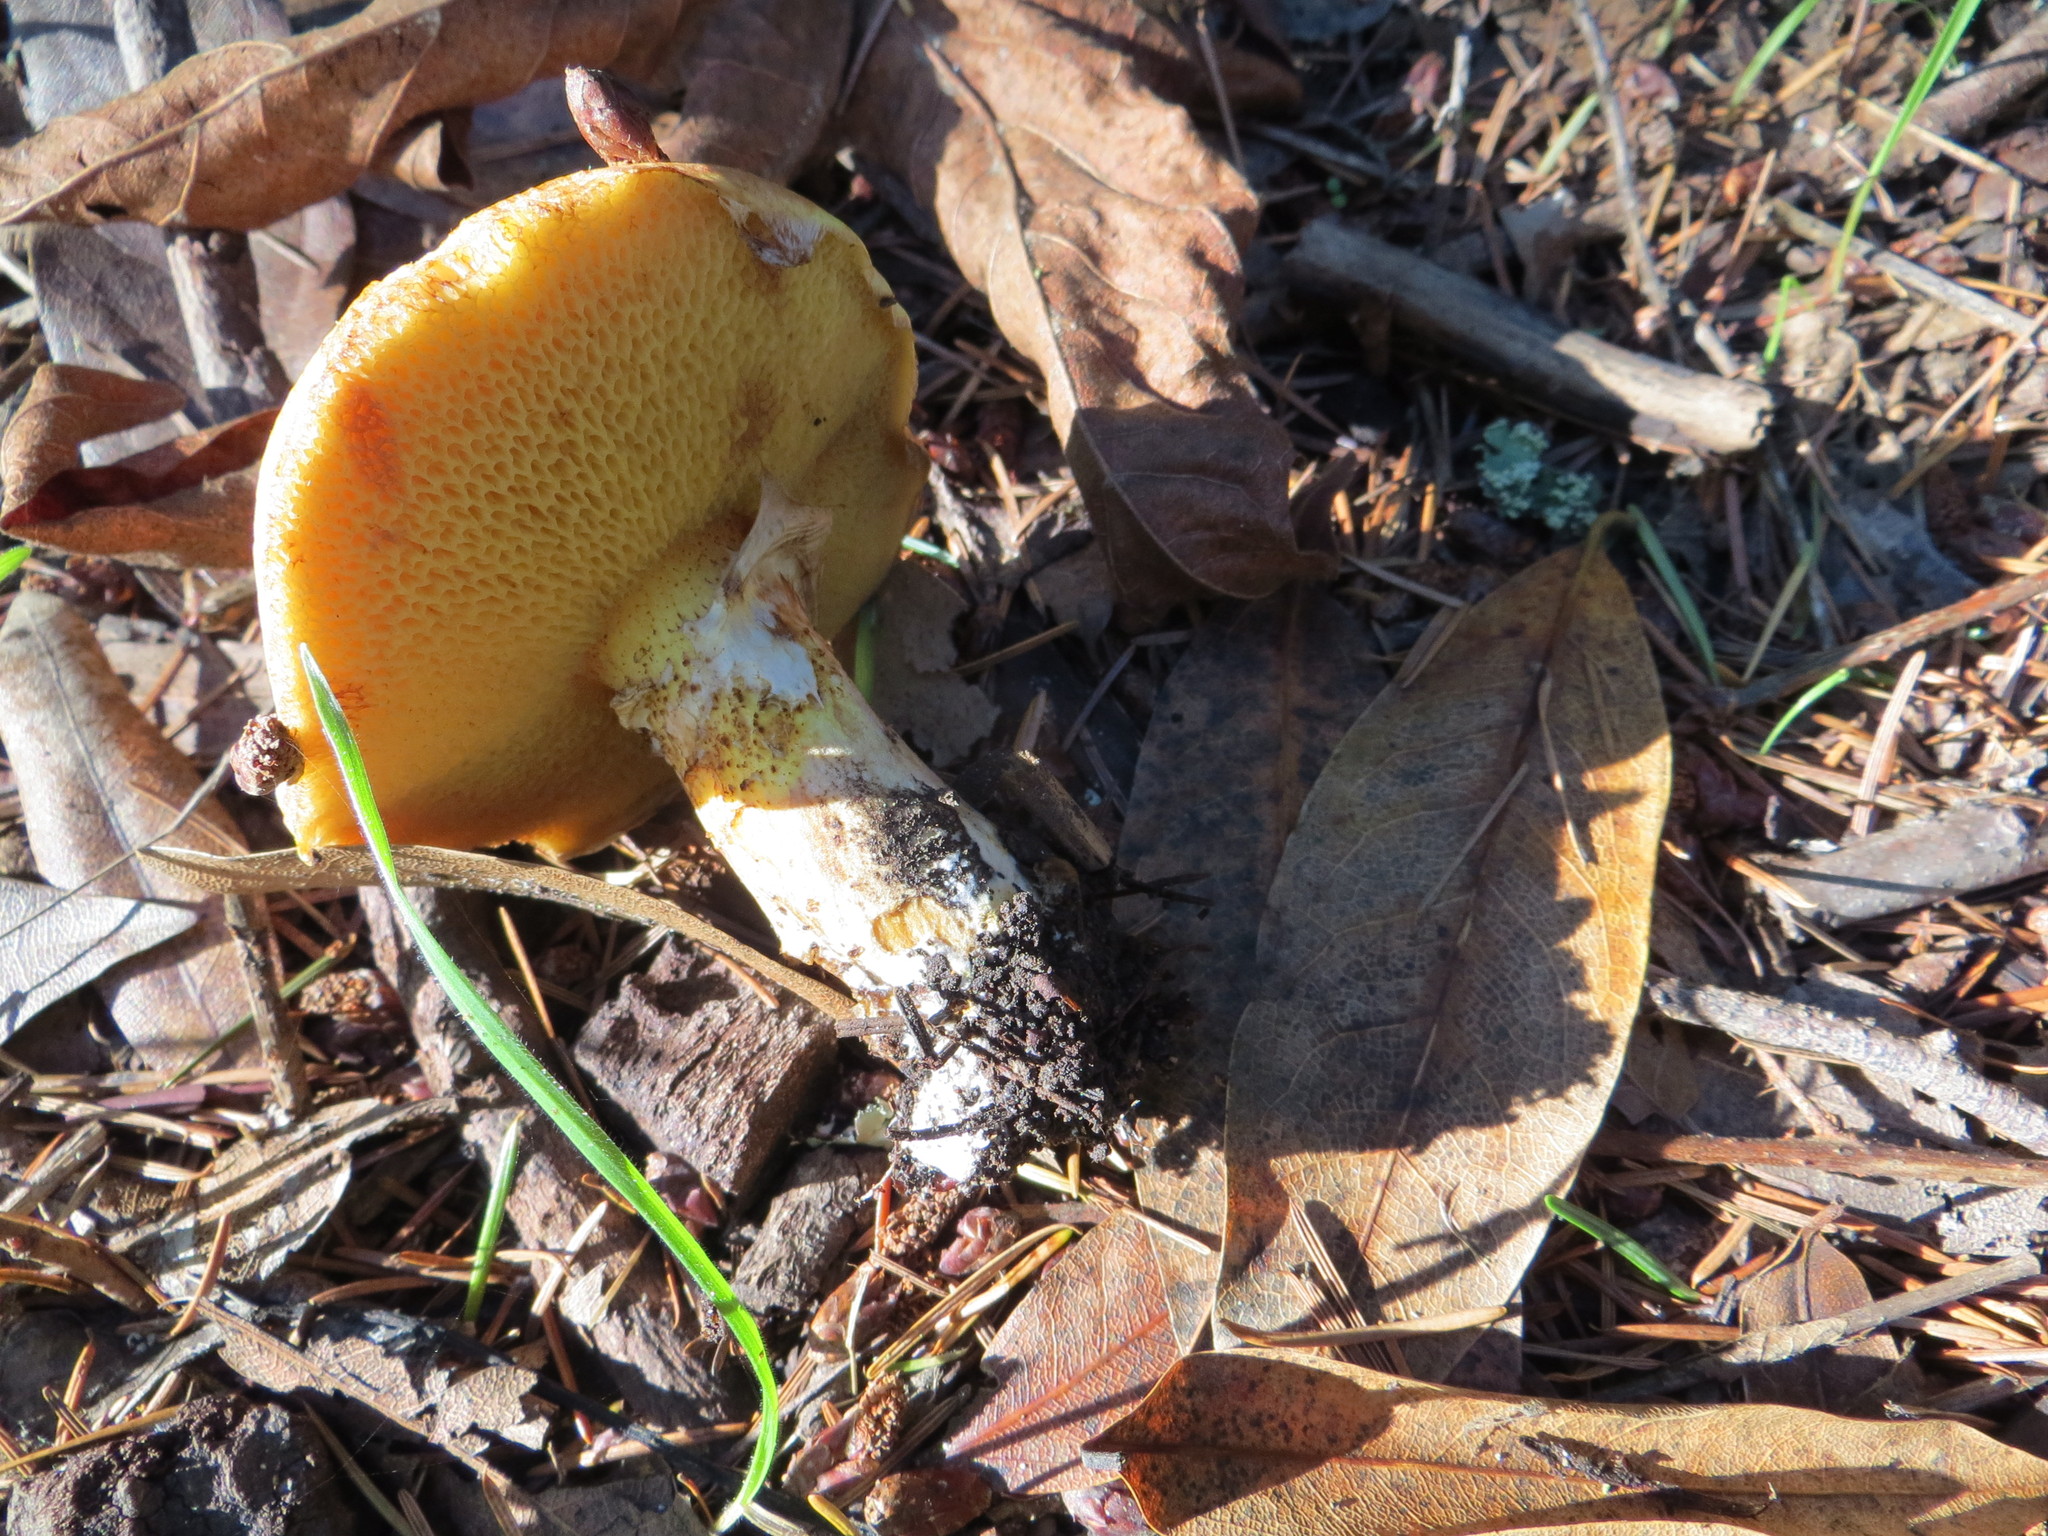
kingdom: Fungi
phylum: Basidiomycota
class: Agaricomycetes
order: Boletales
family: Suillaceae
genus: Suillus
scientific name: Suillus caerulescens
